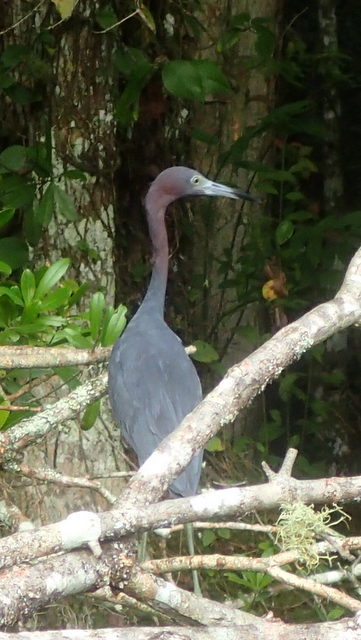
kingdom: Animalia
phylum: Chordata
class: Aves
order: Pelecaniformes
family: Ardeidae
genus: Egretta
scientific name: Egretta caerulea
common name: Little blue heron
